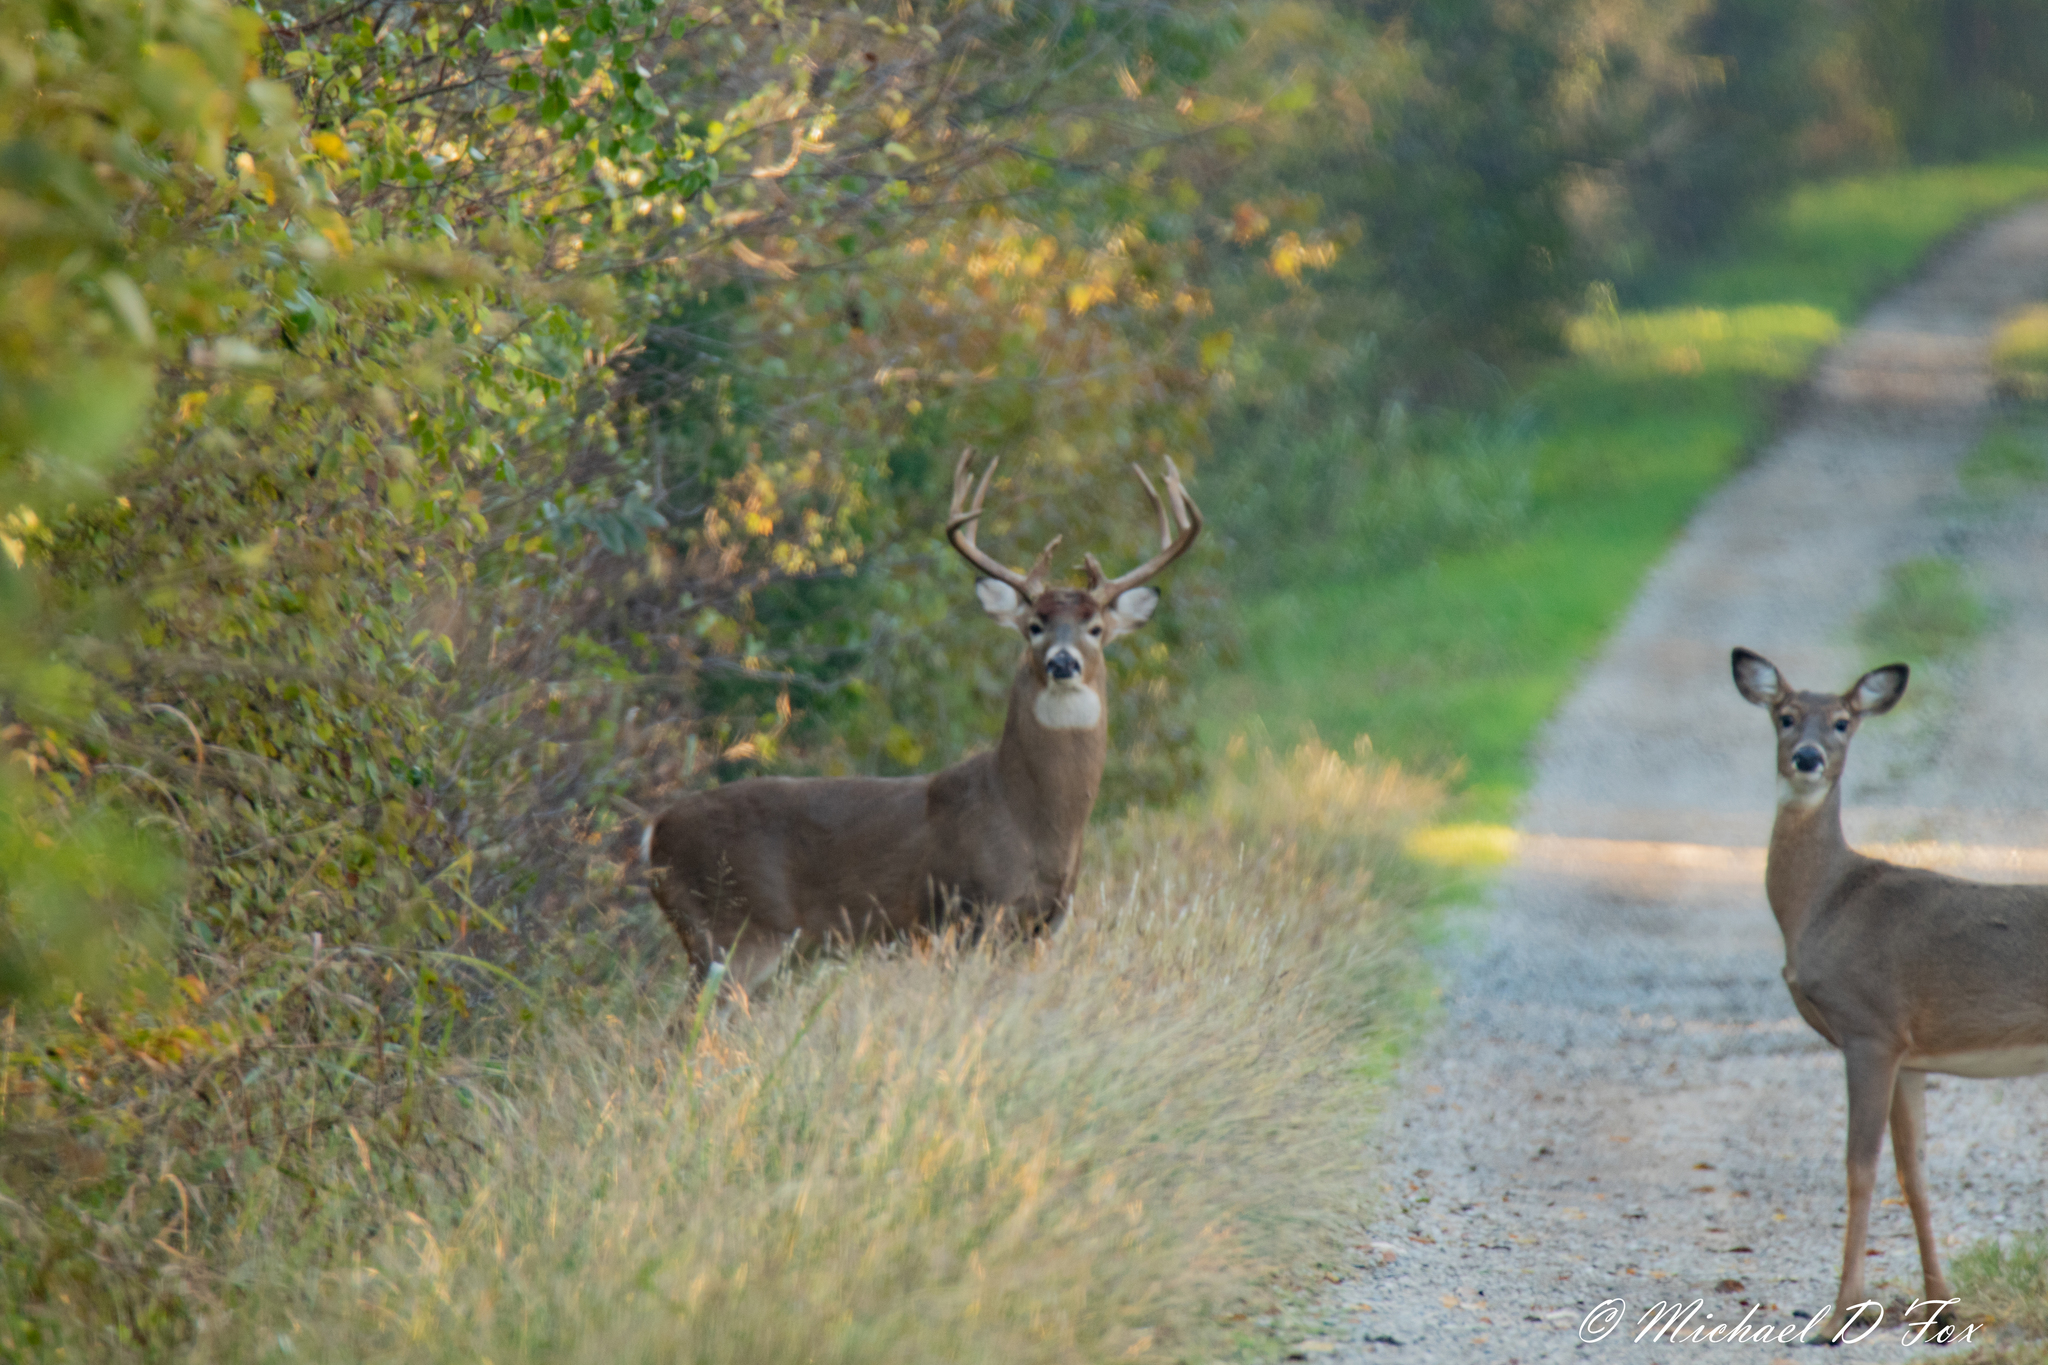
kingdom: Animalia
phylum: Chordata
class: Mammalia
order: Artiodactyla
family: Cervidae
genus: Odocoileus
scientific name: Odocoileus virginianus
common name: White-tailed deer
